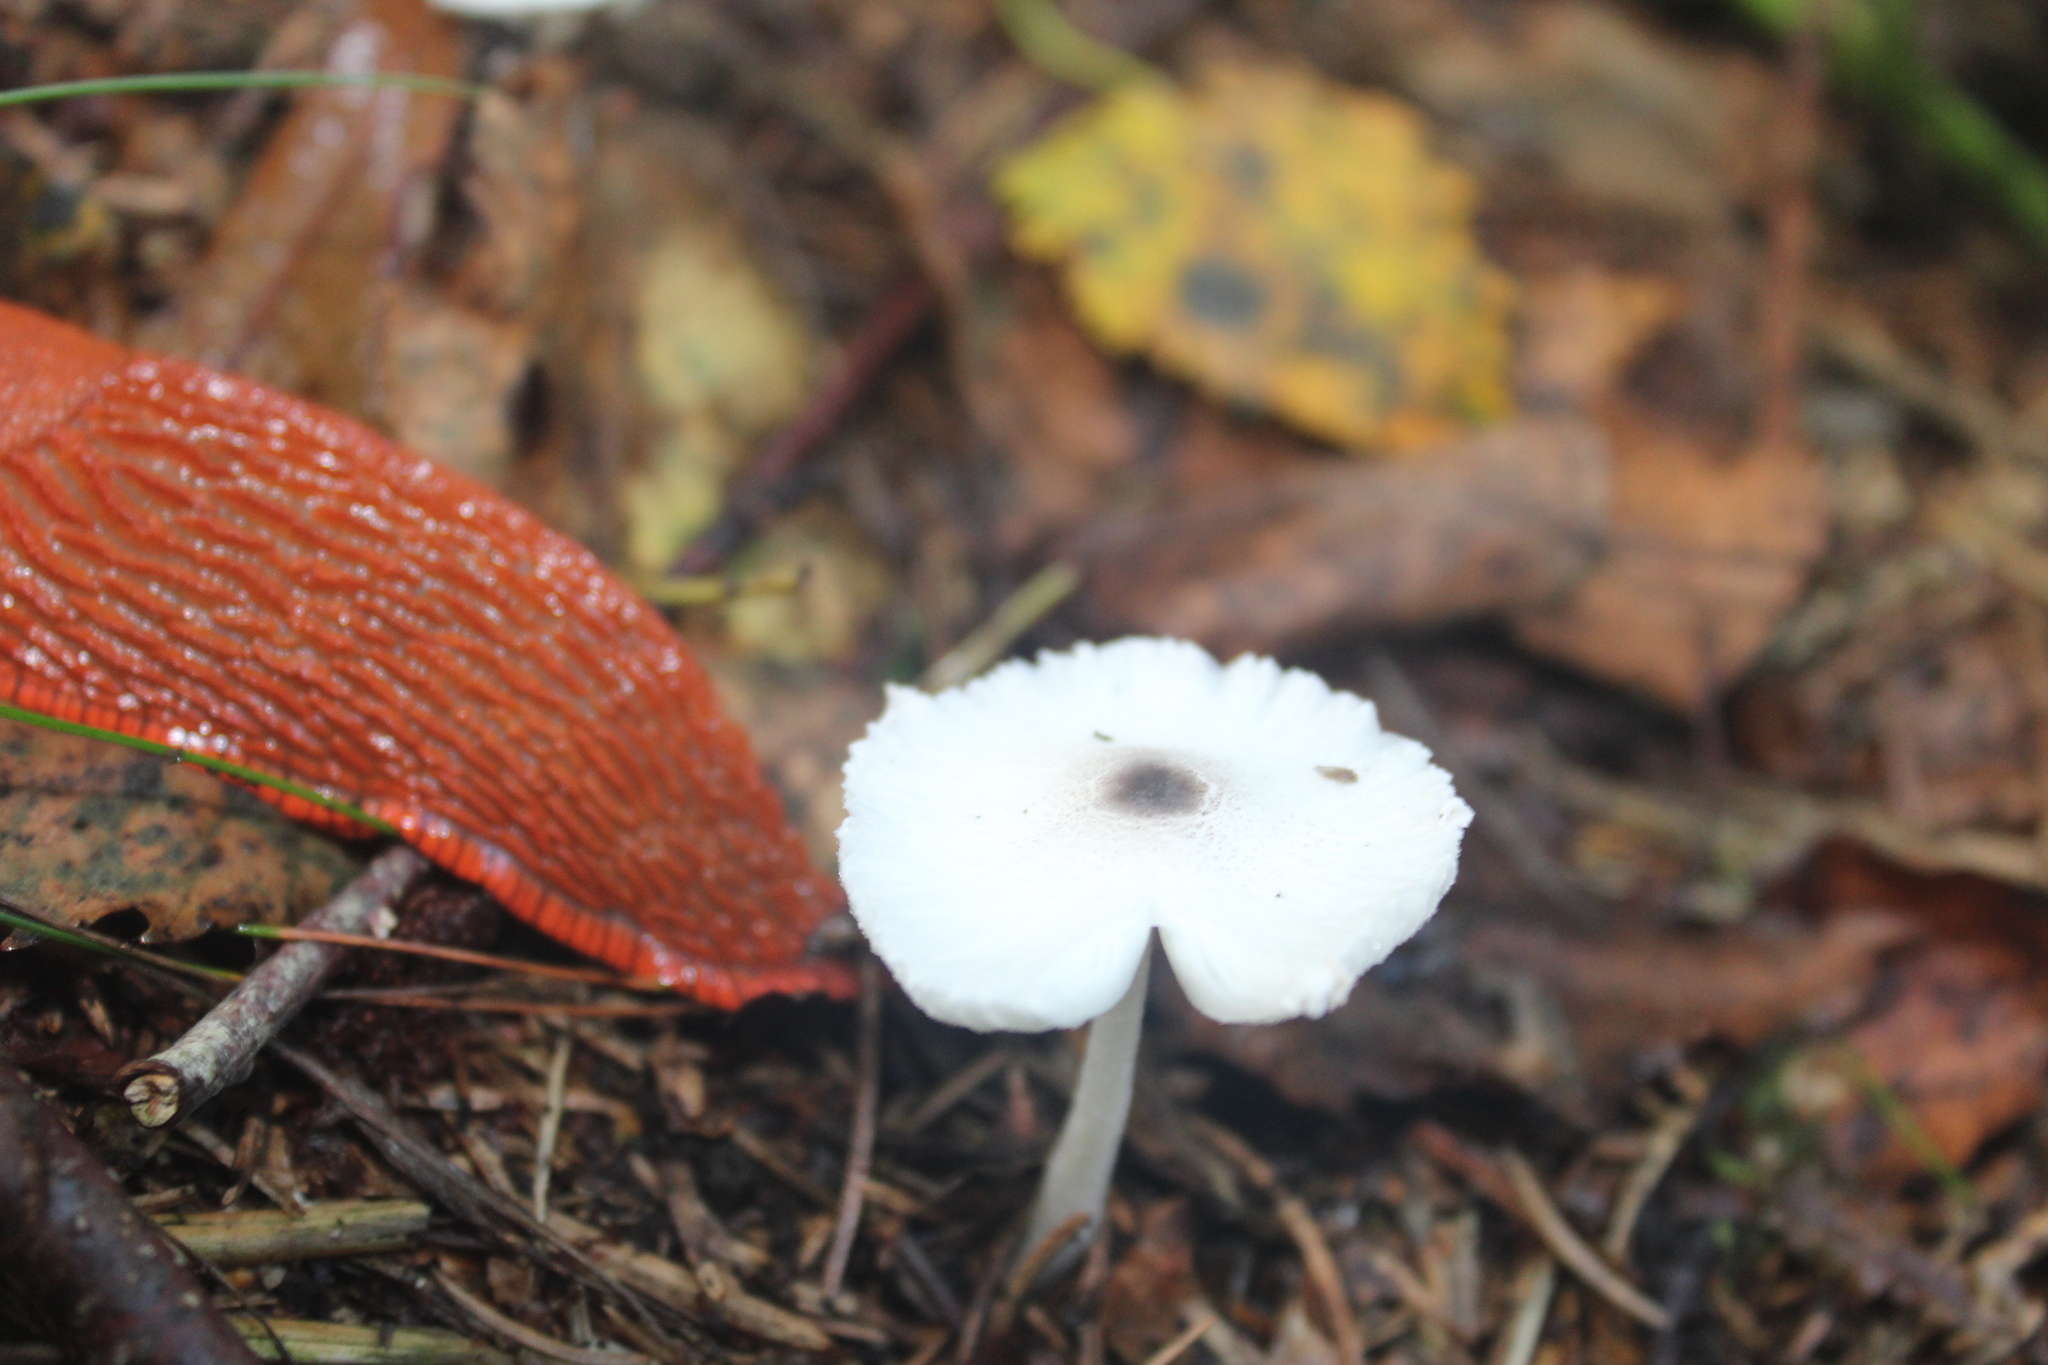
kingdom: Fungi
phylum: Basidiomycota
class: Agaricomycetes
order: Agaricales
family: Agaricaceae
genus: Lepiota
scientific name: Lepiota cristata
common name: Stinking dapperling
